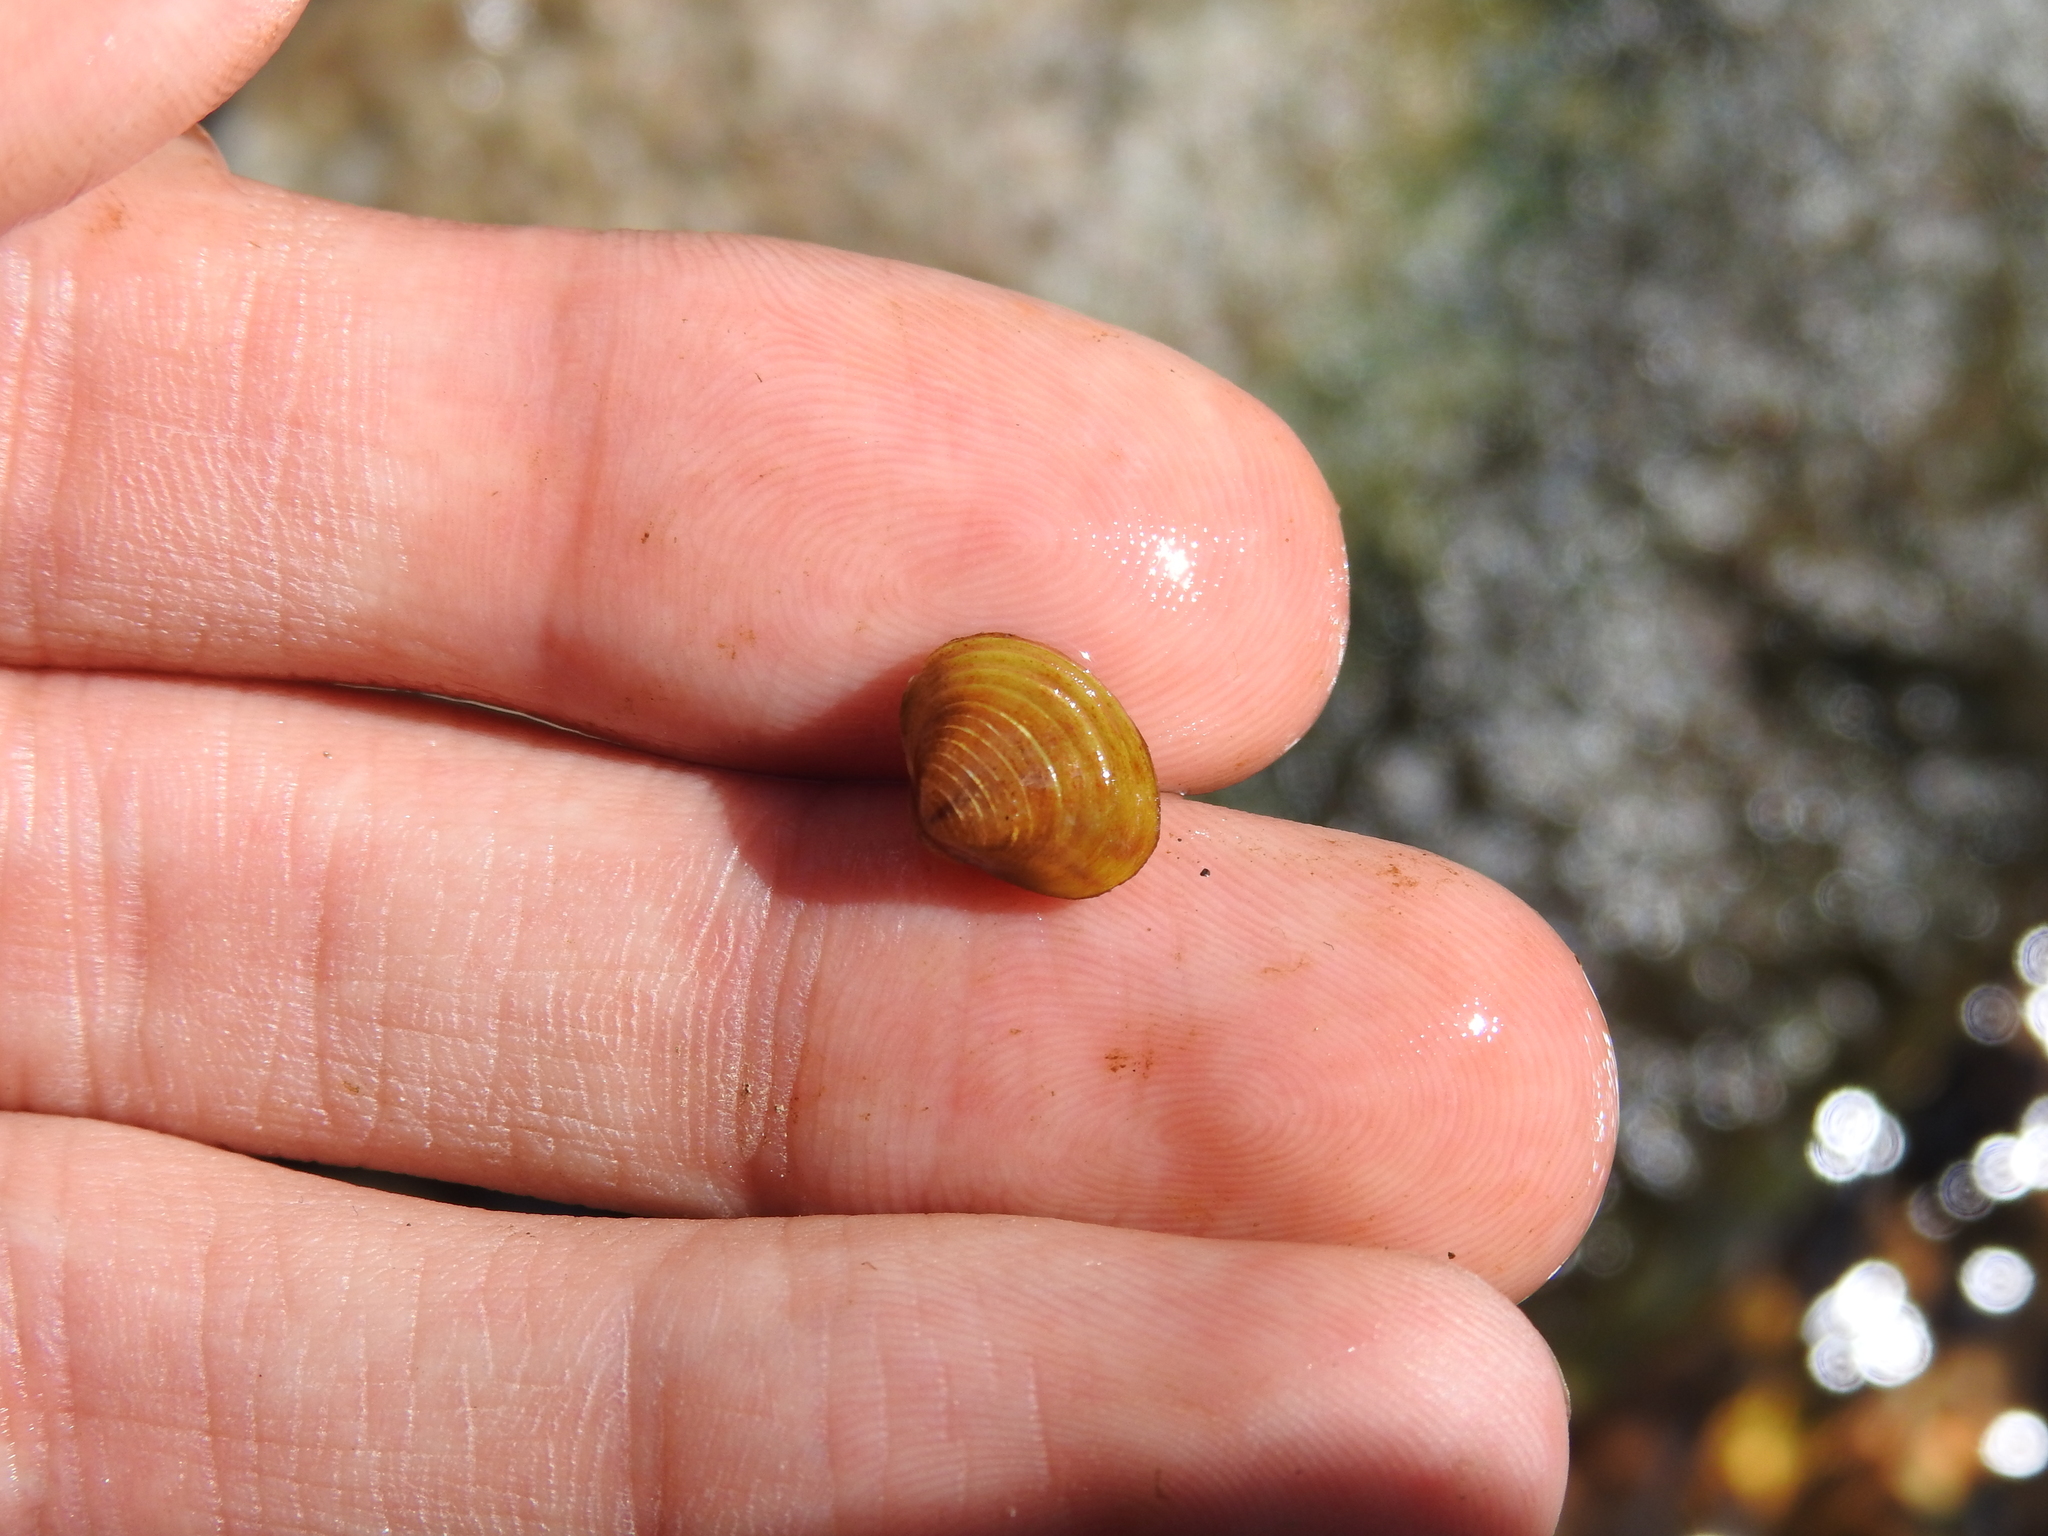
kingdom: Animalia
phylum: Mollusca
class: Bivalvia
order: Venerida
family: Cyrenidae
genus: Corbicula
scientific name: Corbicula fluminea
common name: Asian clam
